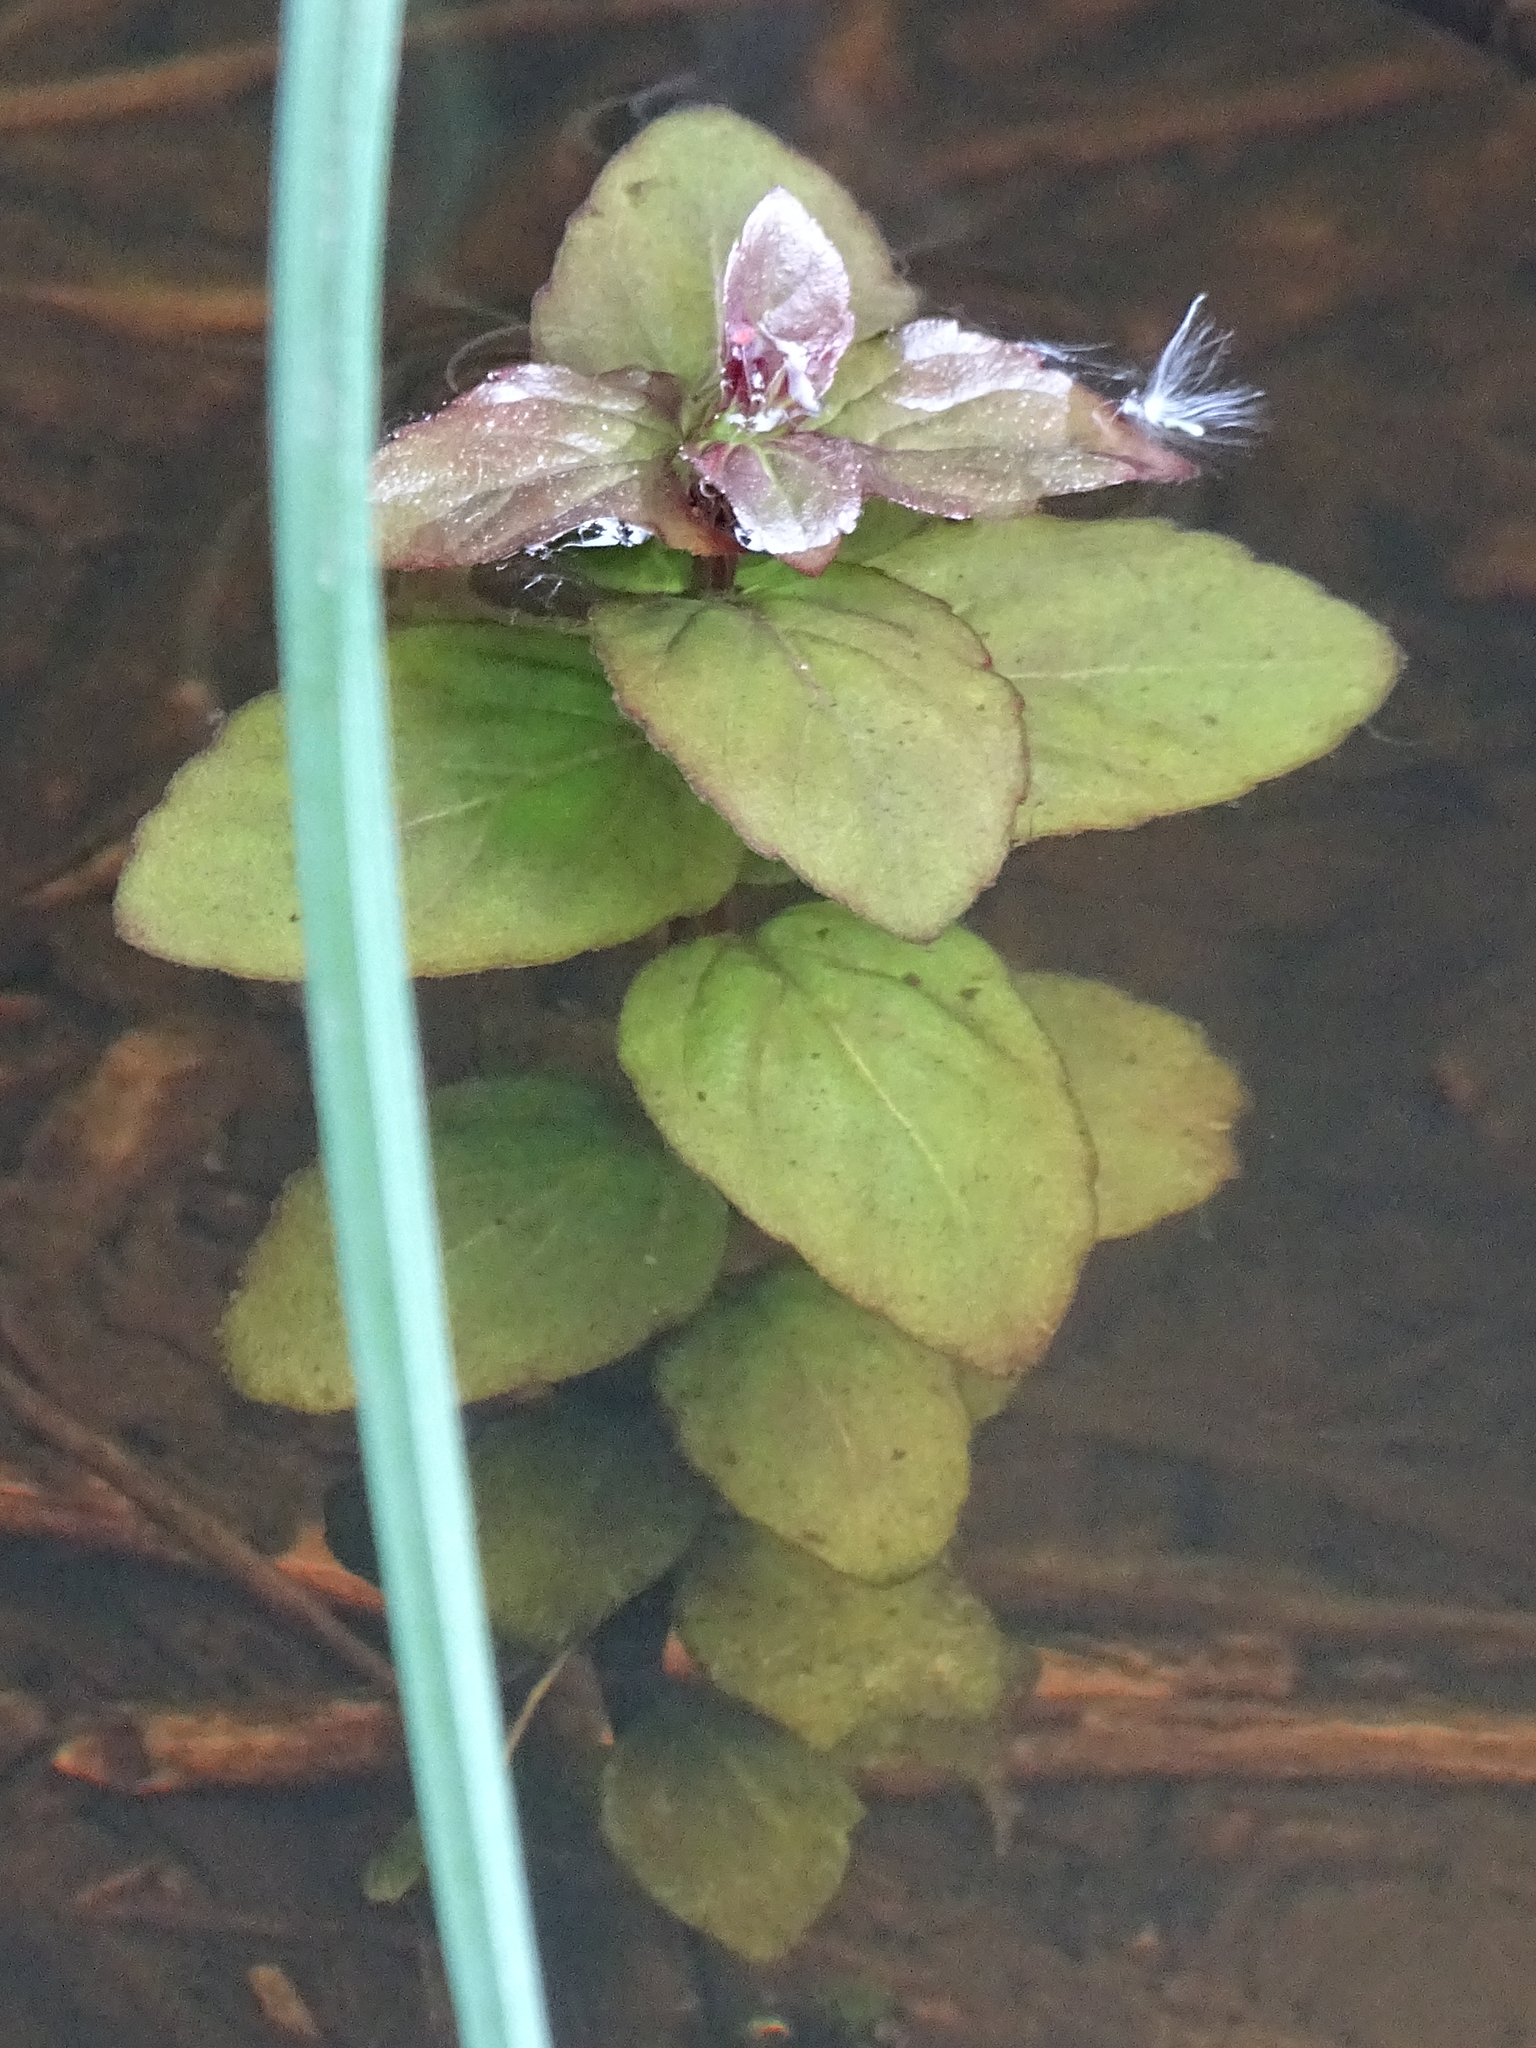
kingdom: Plantae
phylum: Tracheophyta
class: Magnoliopsida
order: Lamiales
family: Lamiaceae
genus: Mentha
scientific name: Mentha aquatica
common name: Water mint
